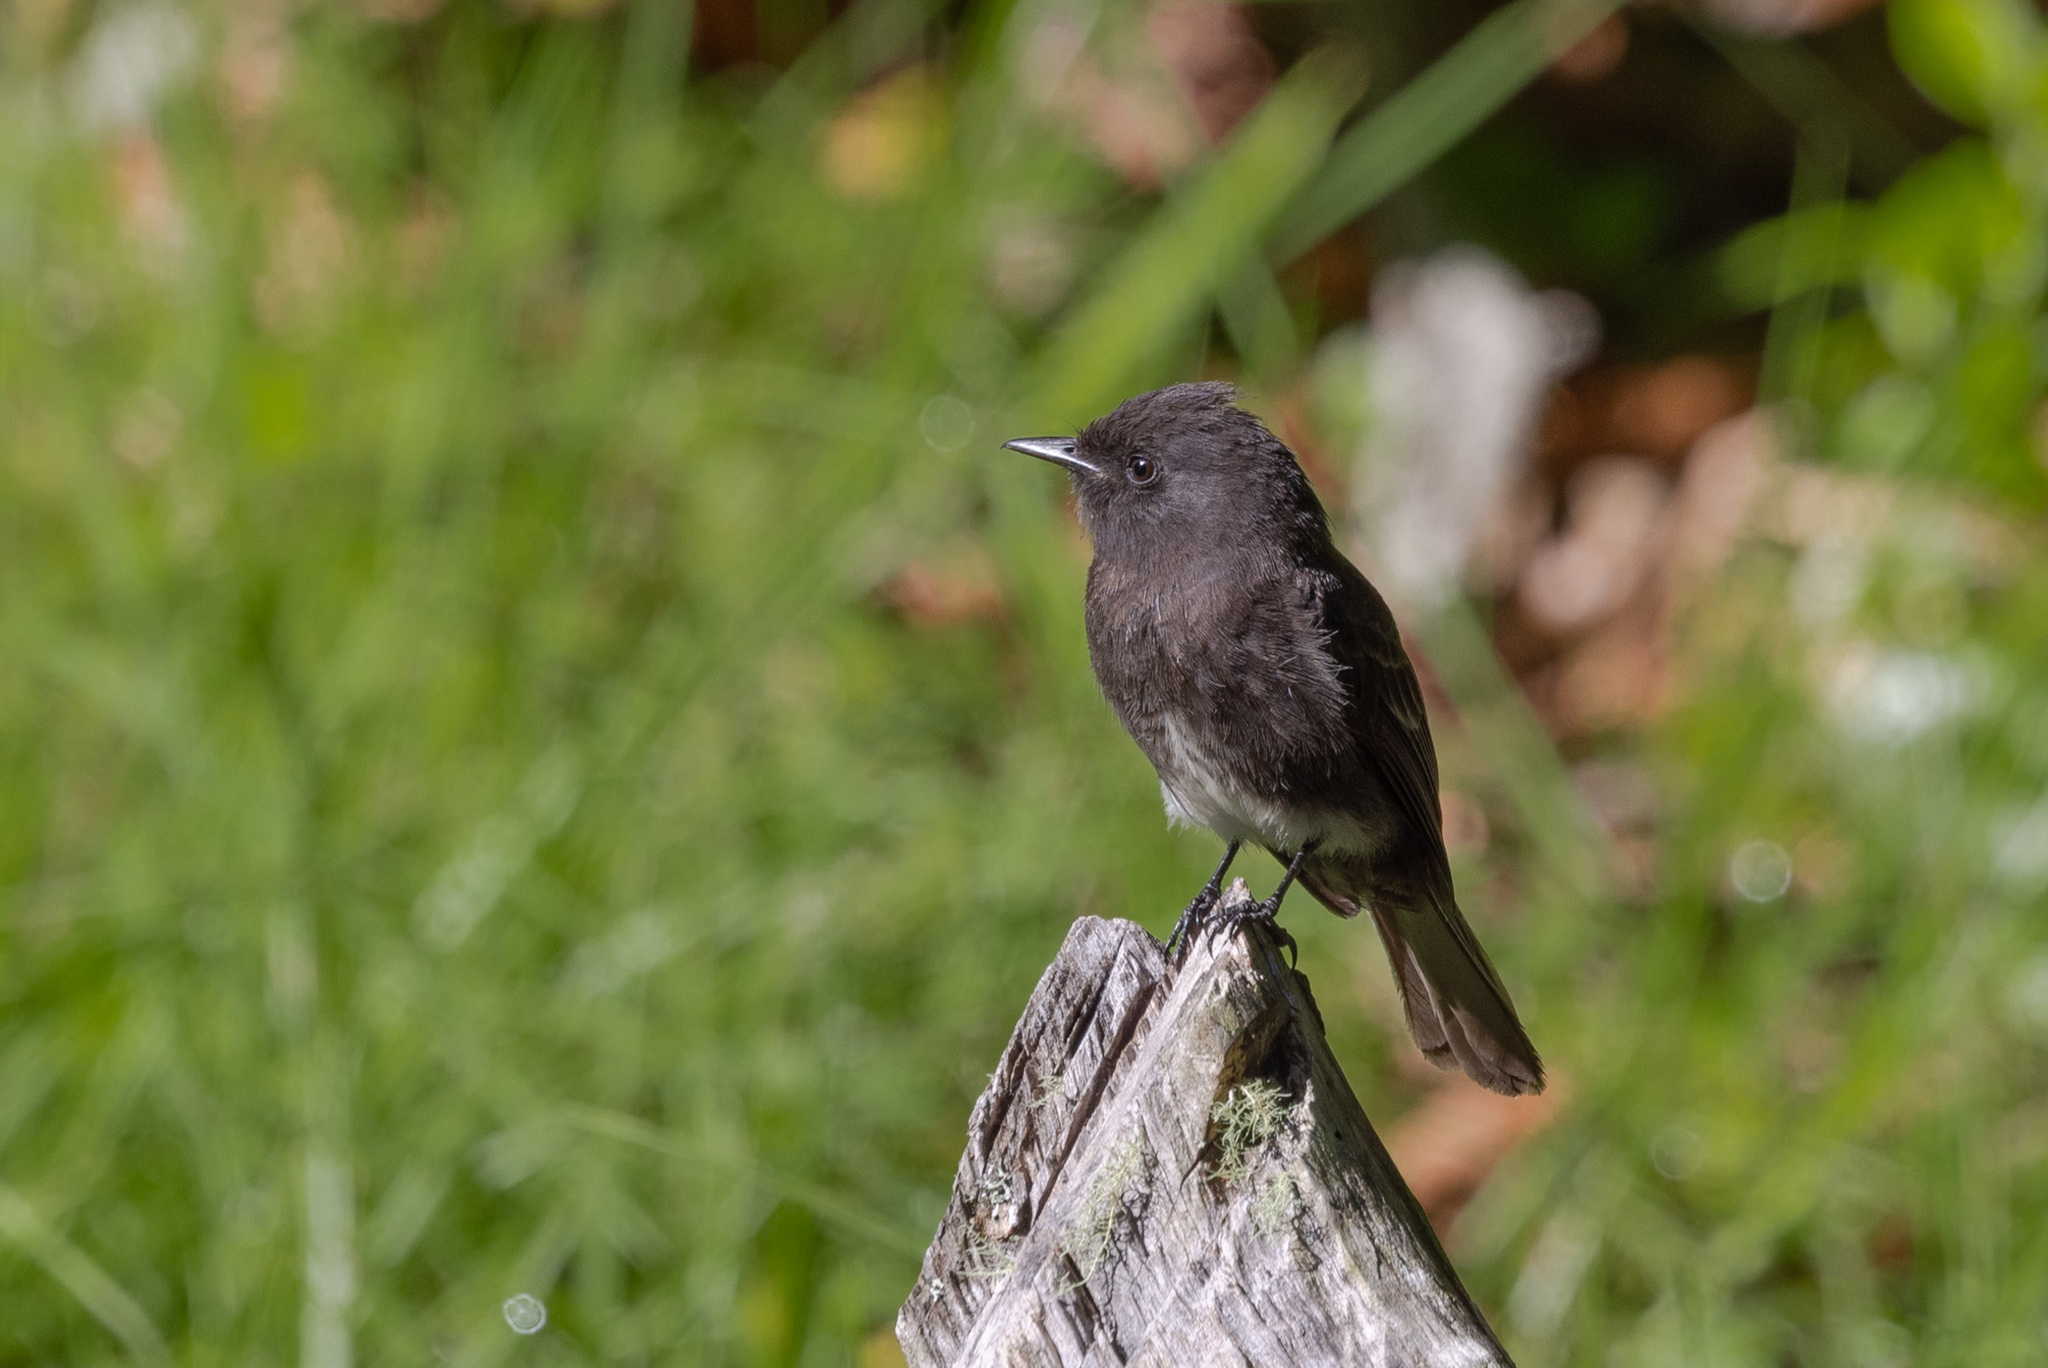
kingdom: Animalia
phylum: Chordata
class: Aves
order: Passeriformes
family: Tyrannidae
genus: Sayornis
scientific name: Sayornis nigricans
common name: Black phoebe
